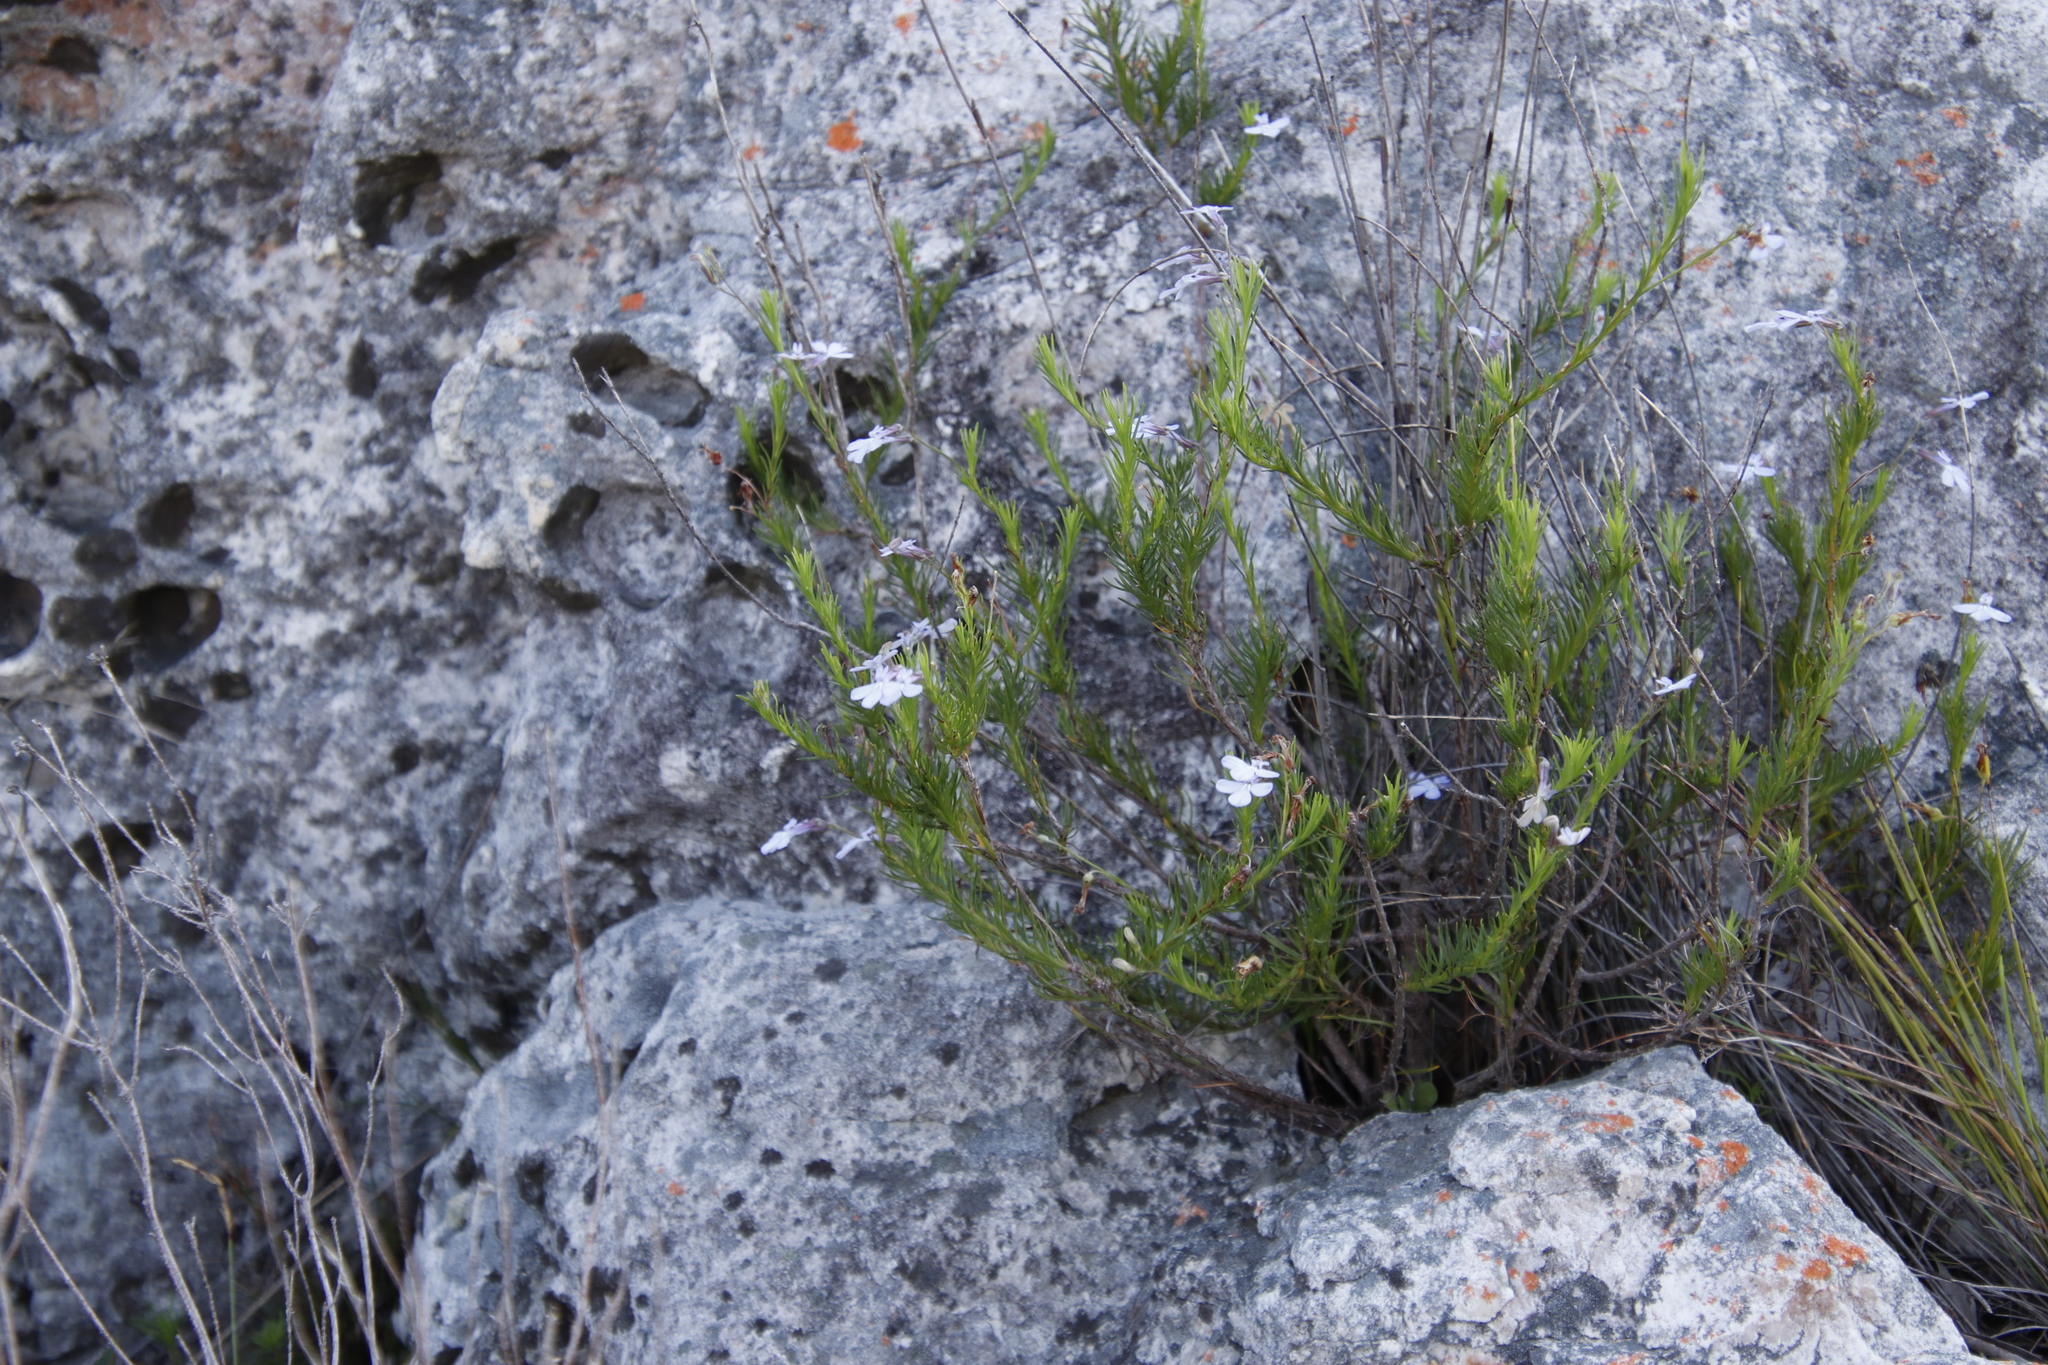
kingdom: Plantae
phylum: Tracheophyta
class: Magnoliopsida
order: Asterales
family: Campanulaceae
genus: Lobelia
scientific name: Lobelia pinifolia
